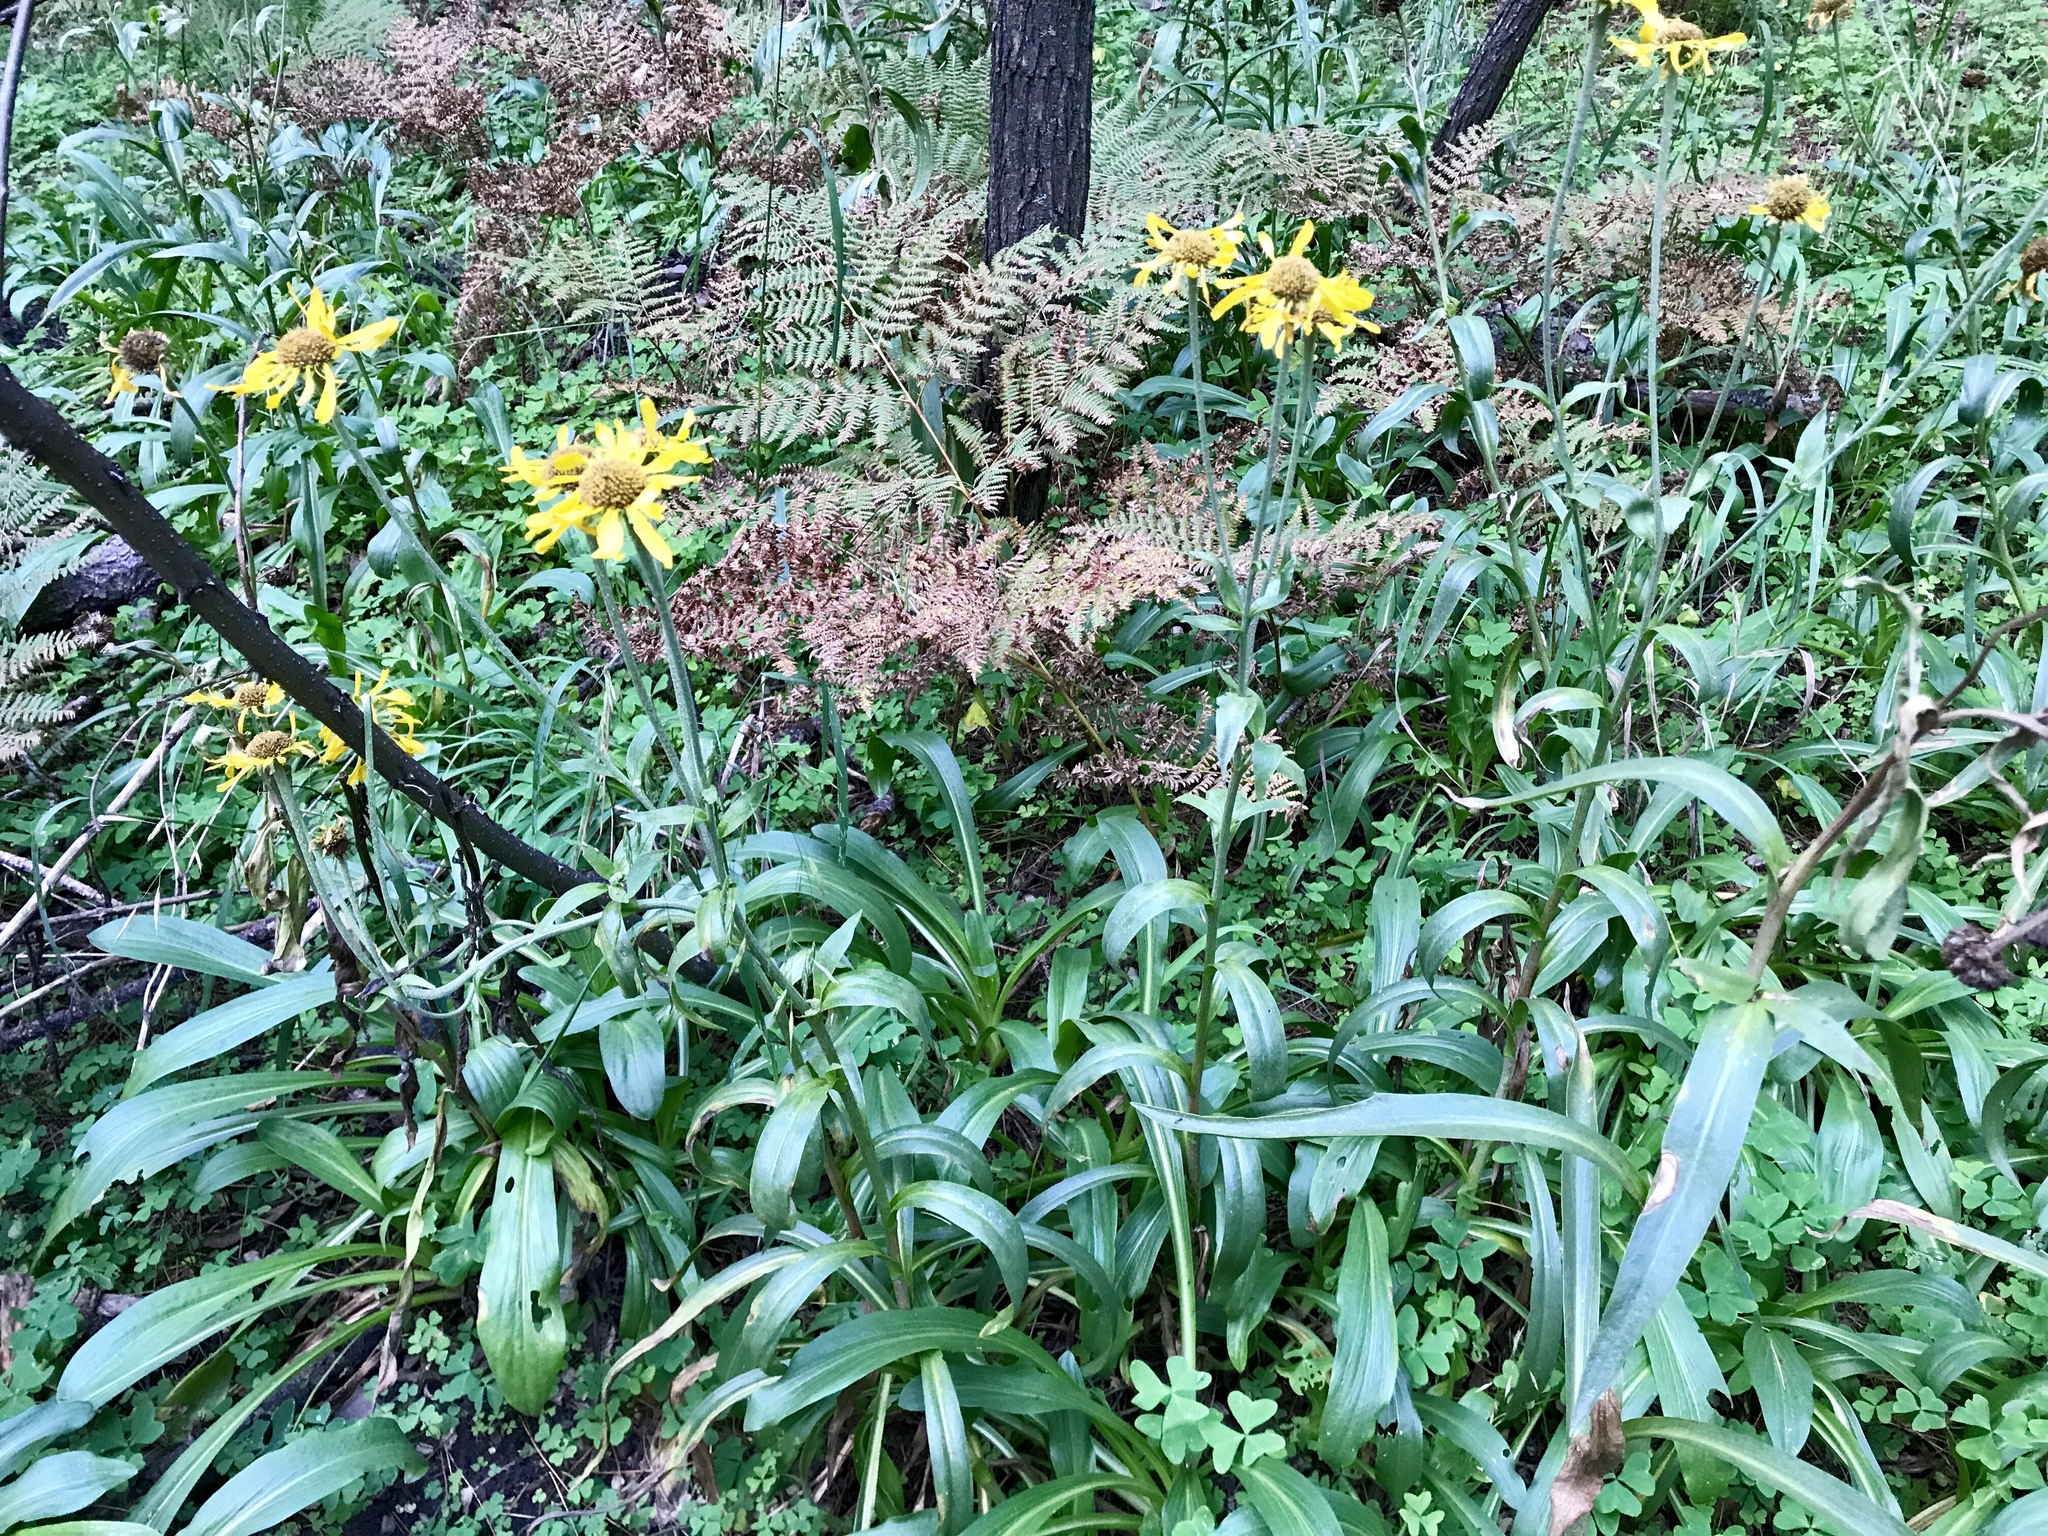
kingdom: Plantae
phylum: Tracheophyta
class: Magnoliopsida
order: Asterales
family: Asteraceae
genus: Hymenoxys
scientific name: Hymenoxys hoopesii
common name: Orange-sneezeweed
